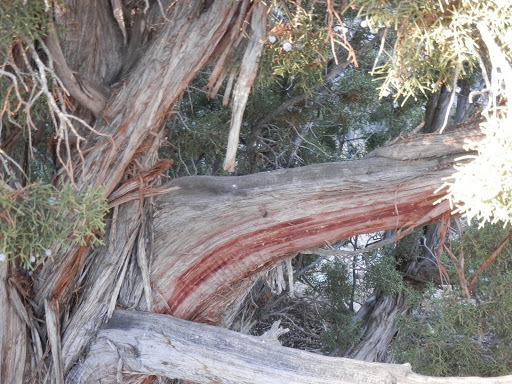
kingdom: Plantae
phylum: Tracheophyta
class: Pinopsida
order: Pinales
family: Cupressaceae
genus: Juniperus
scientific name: Juniperus californica
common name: California juniper
